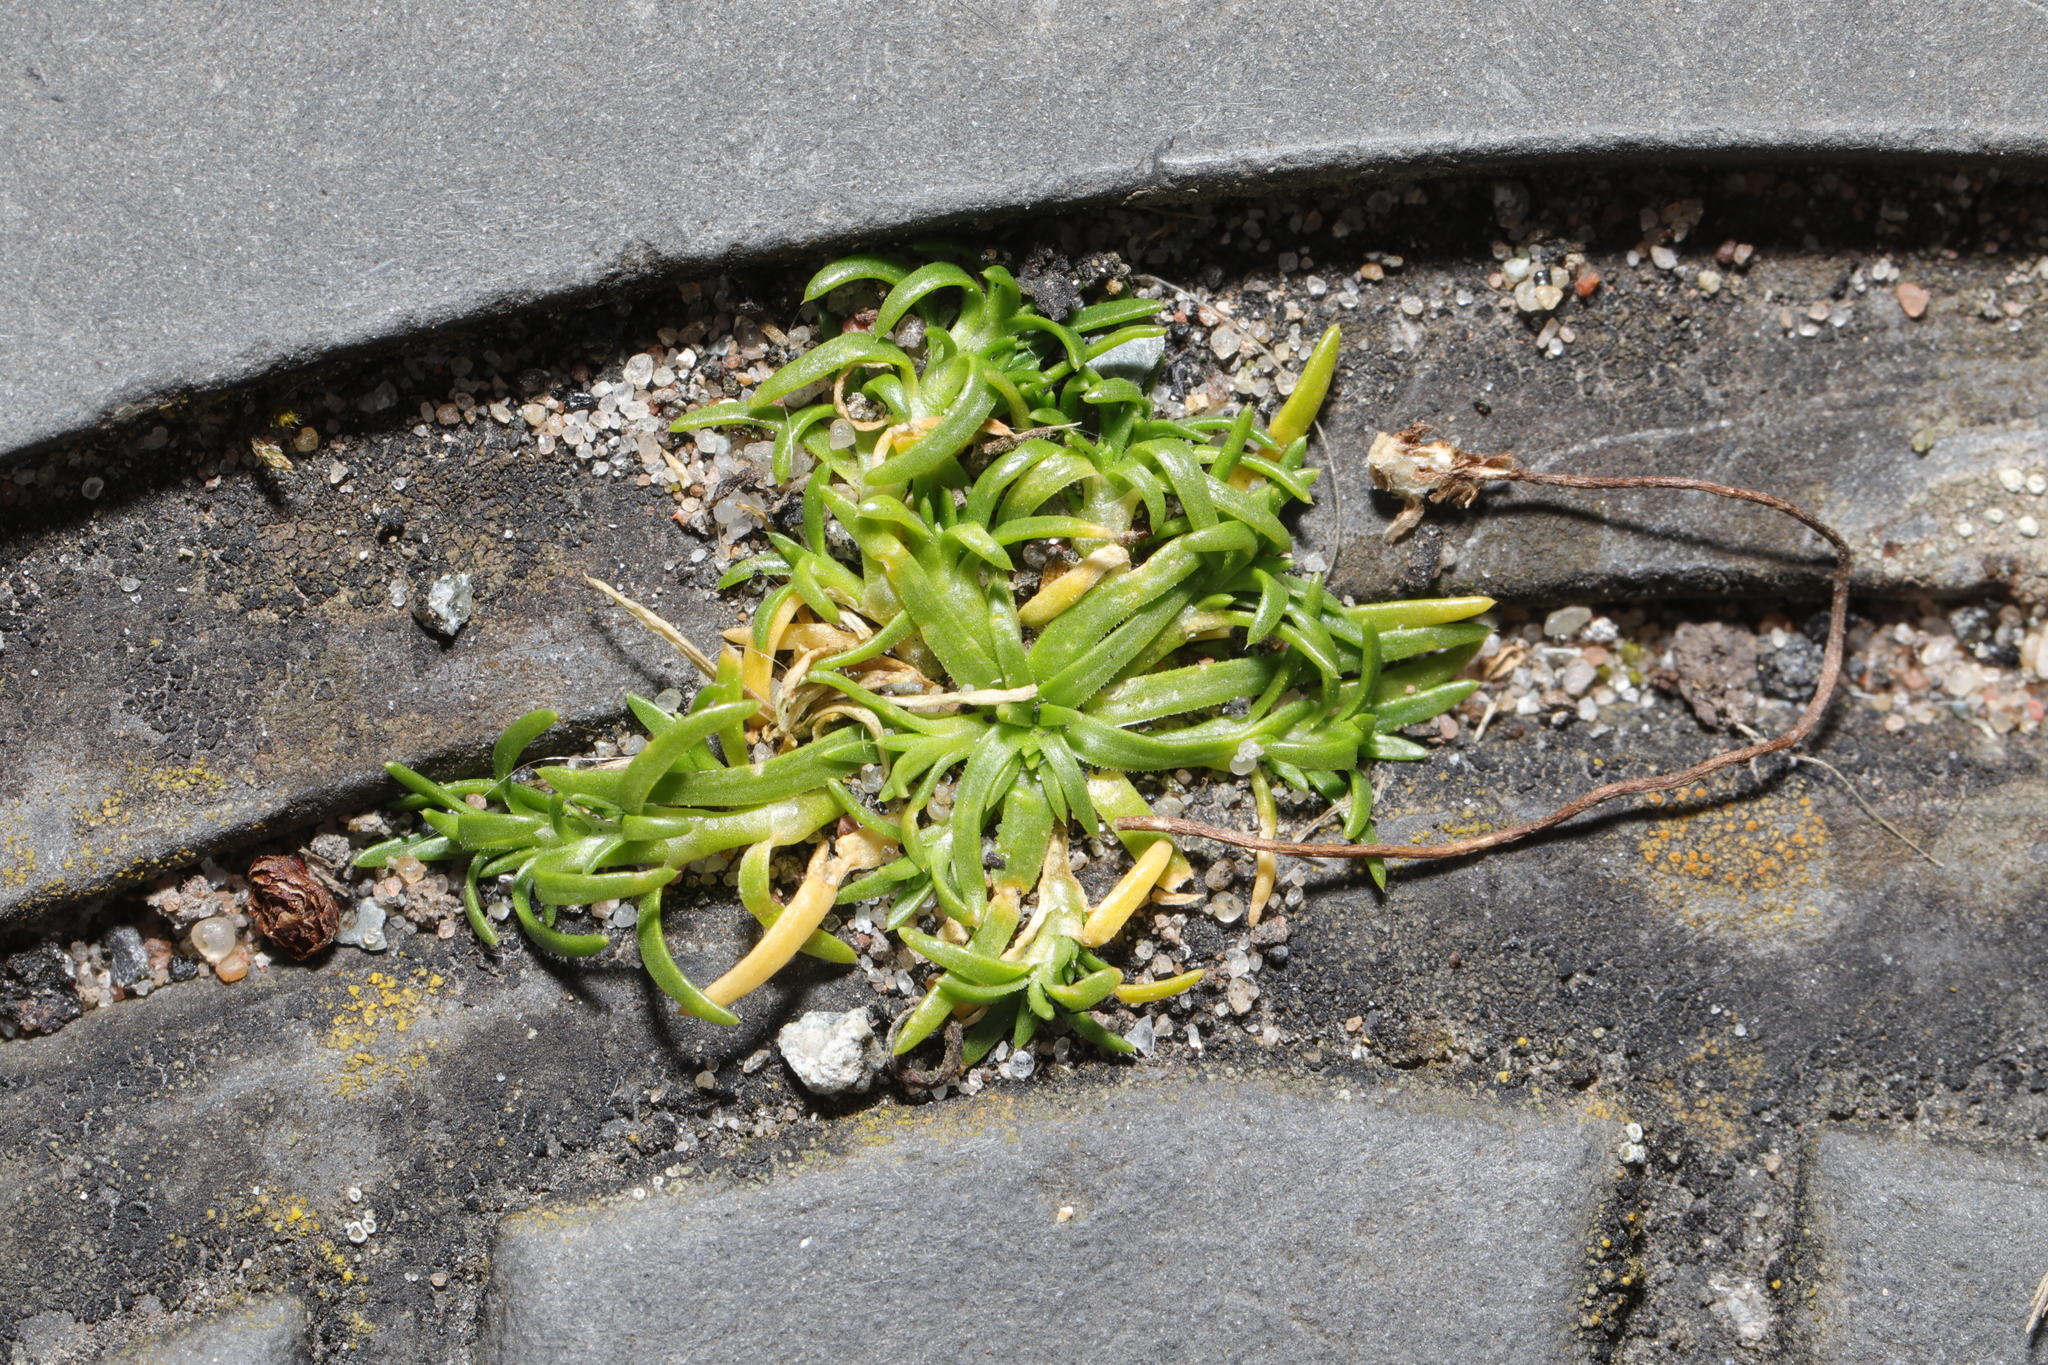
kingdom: Plantae
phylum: Tracheophyta
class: Magnoliopsida
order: Caryophyllales
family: Caryophyllaceae
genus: Sagina
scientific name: Sagina procumbens
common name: Procumbent pearlwort
